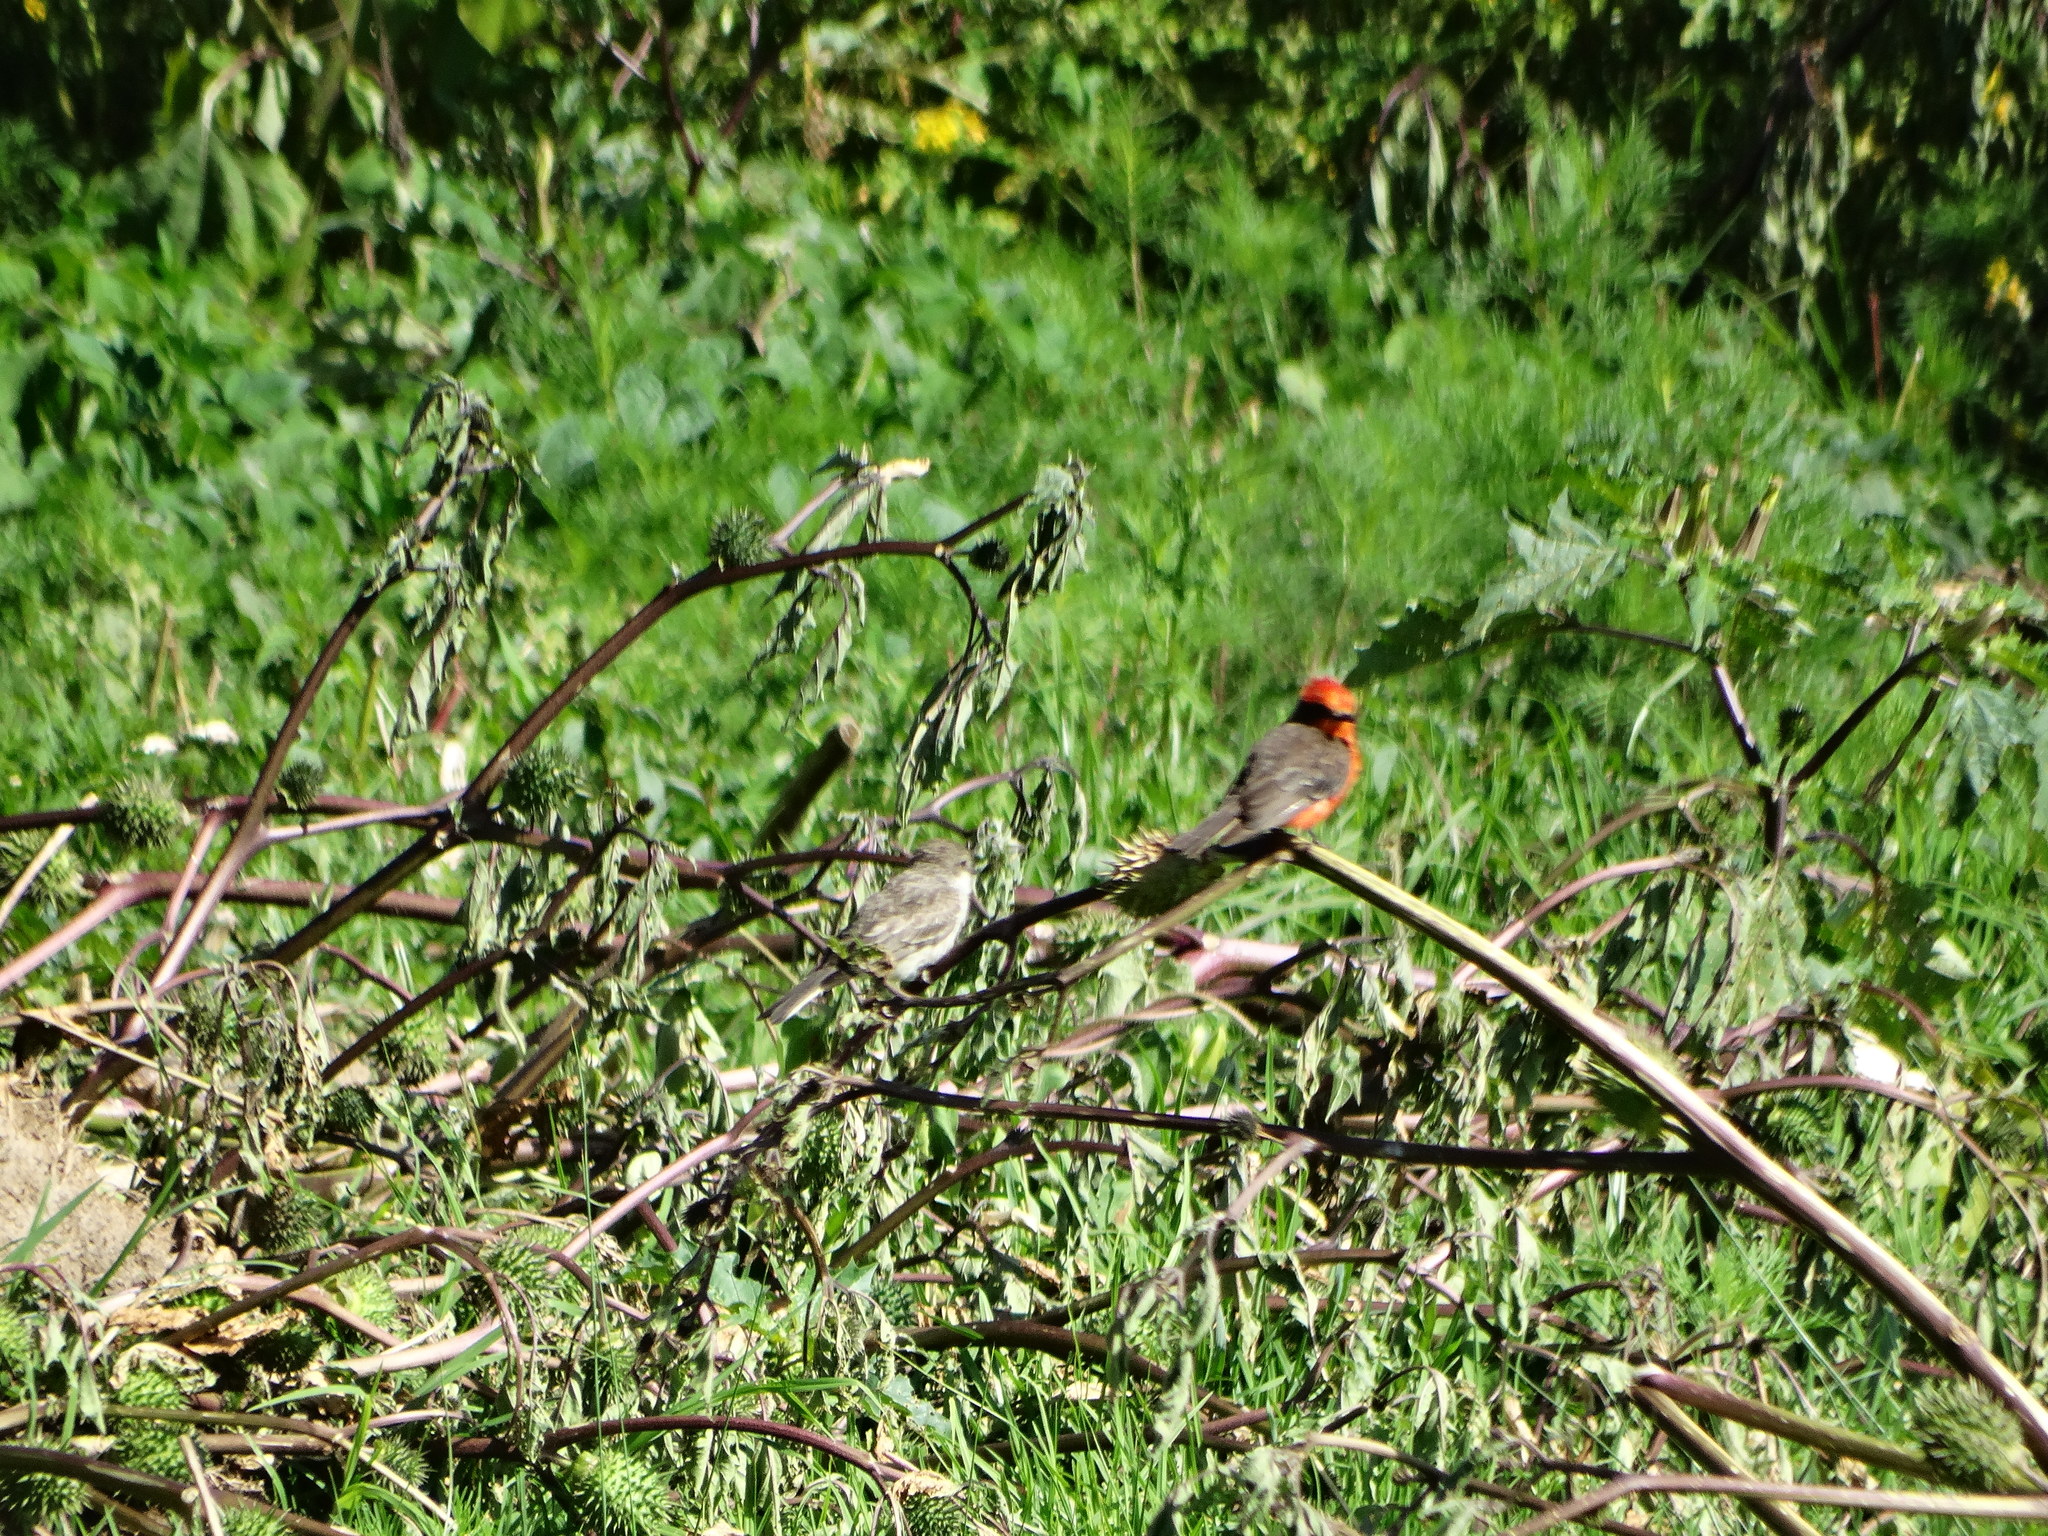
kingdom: Animalia
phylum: Chordata
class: Aves
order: Passeriformes
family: Tyrannidae
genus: Pyrocephalus
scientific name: Pyrocephalus rubinus
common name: Vermilion flycatcher
